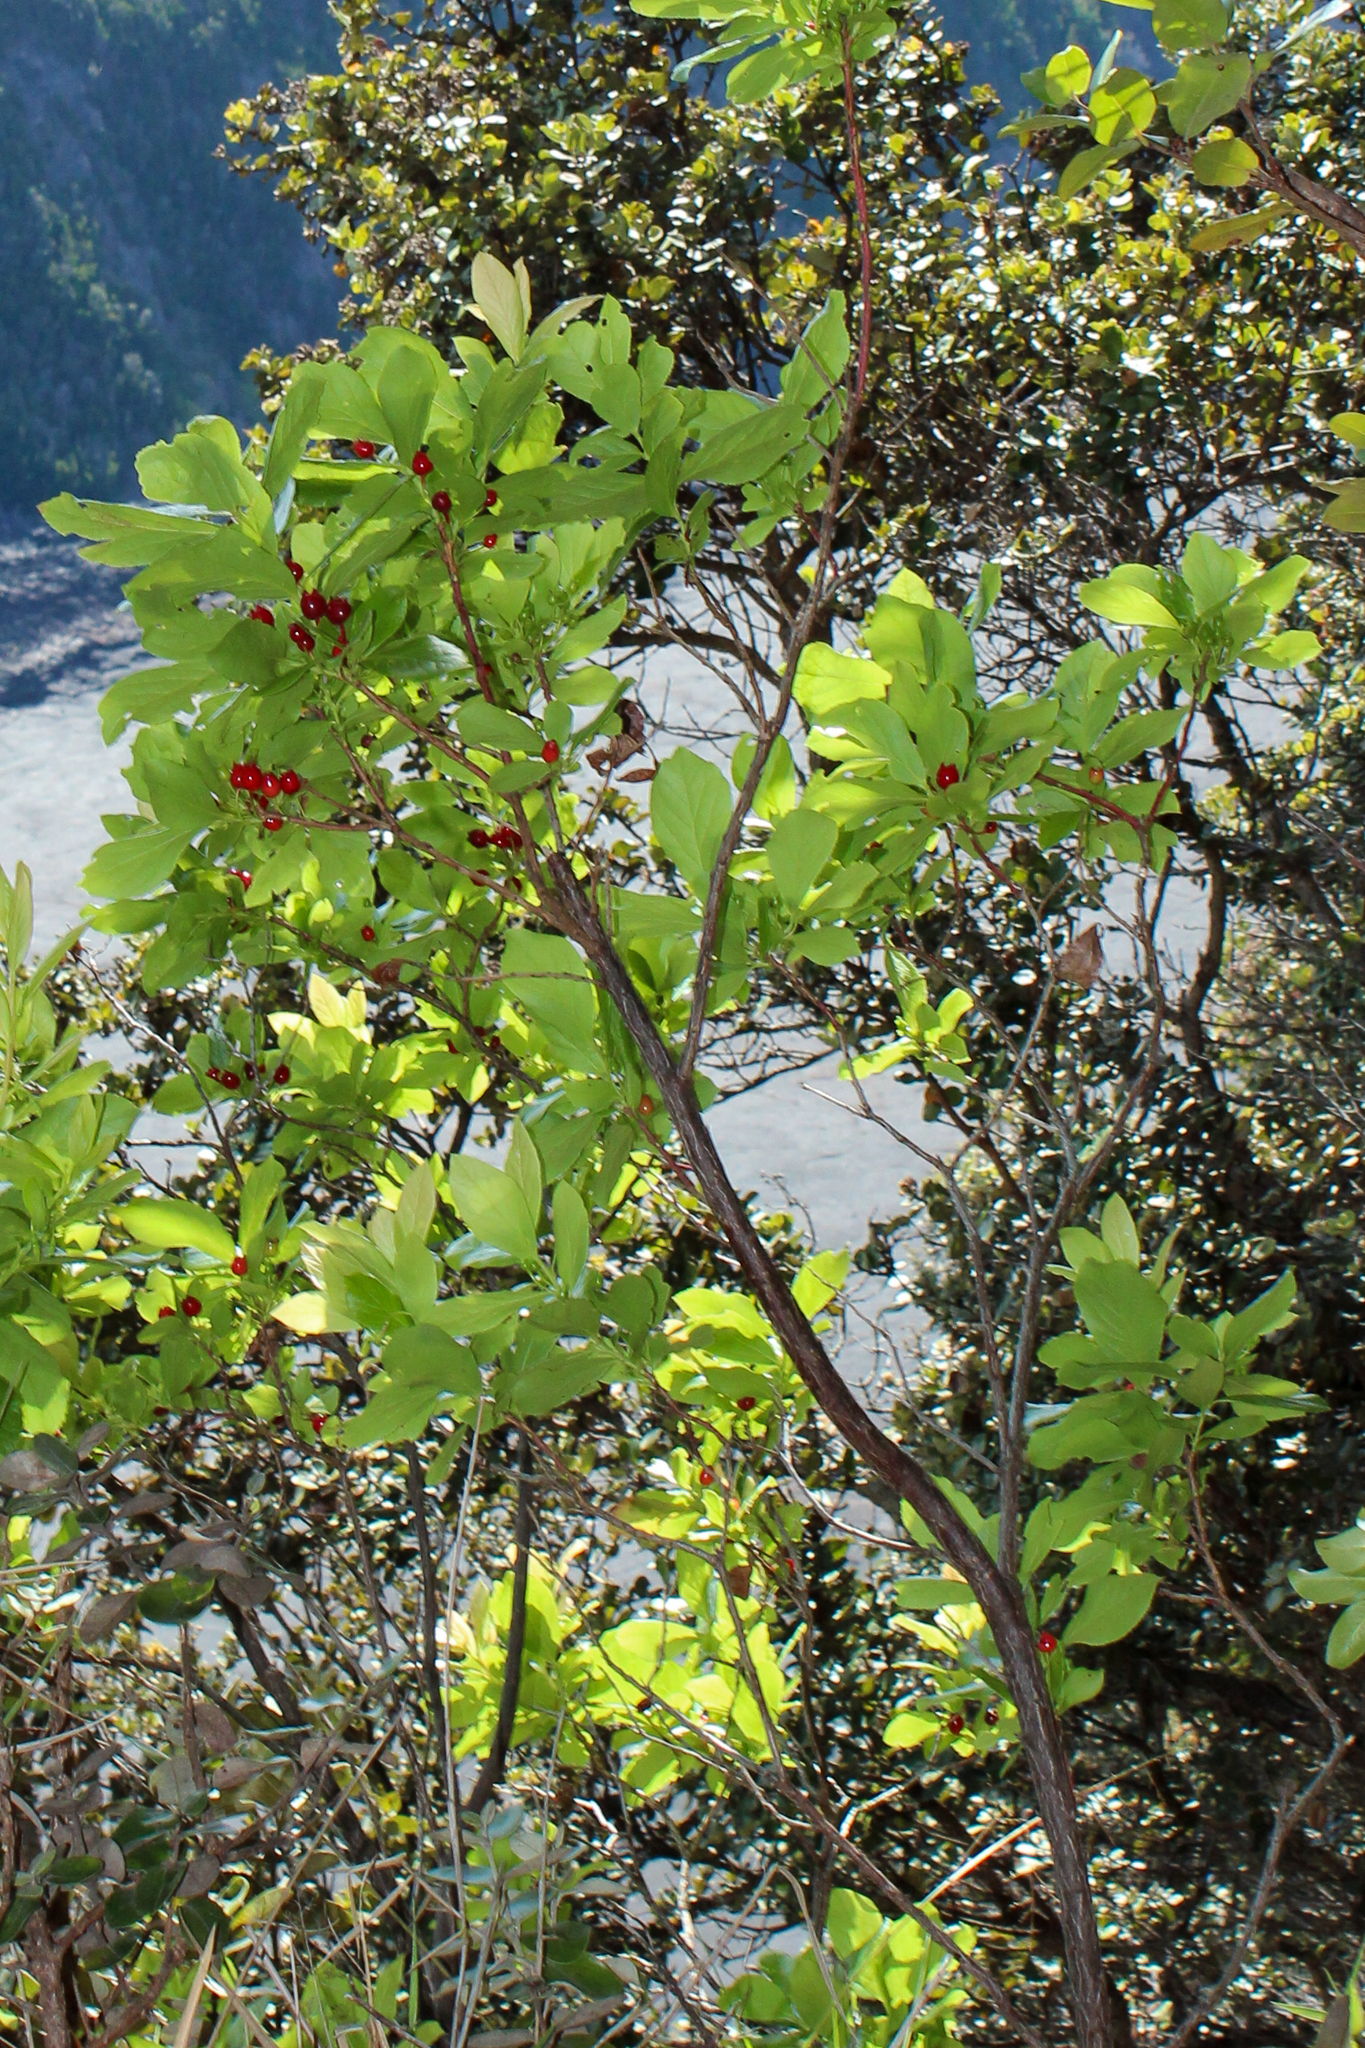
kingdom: Plantae
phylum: Tracheophyta
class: Magnoliopsida
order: Ericales
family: Ericaceae
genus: Vaccinium
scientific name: Vaccinium calycinum
